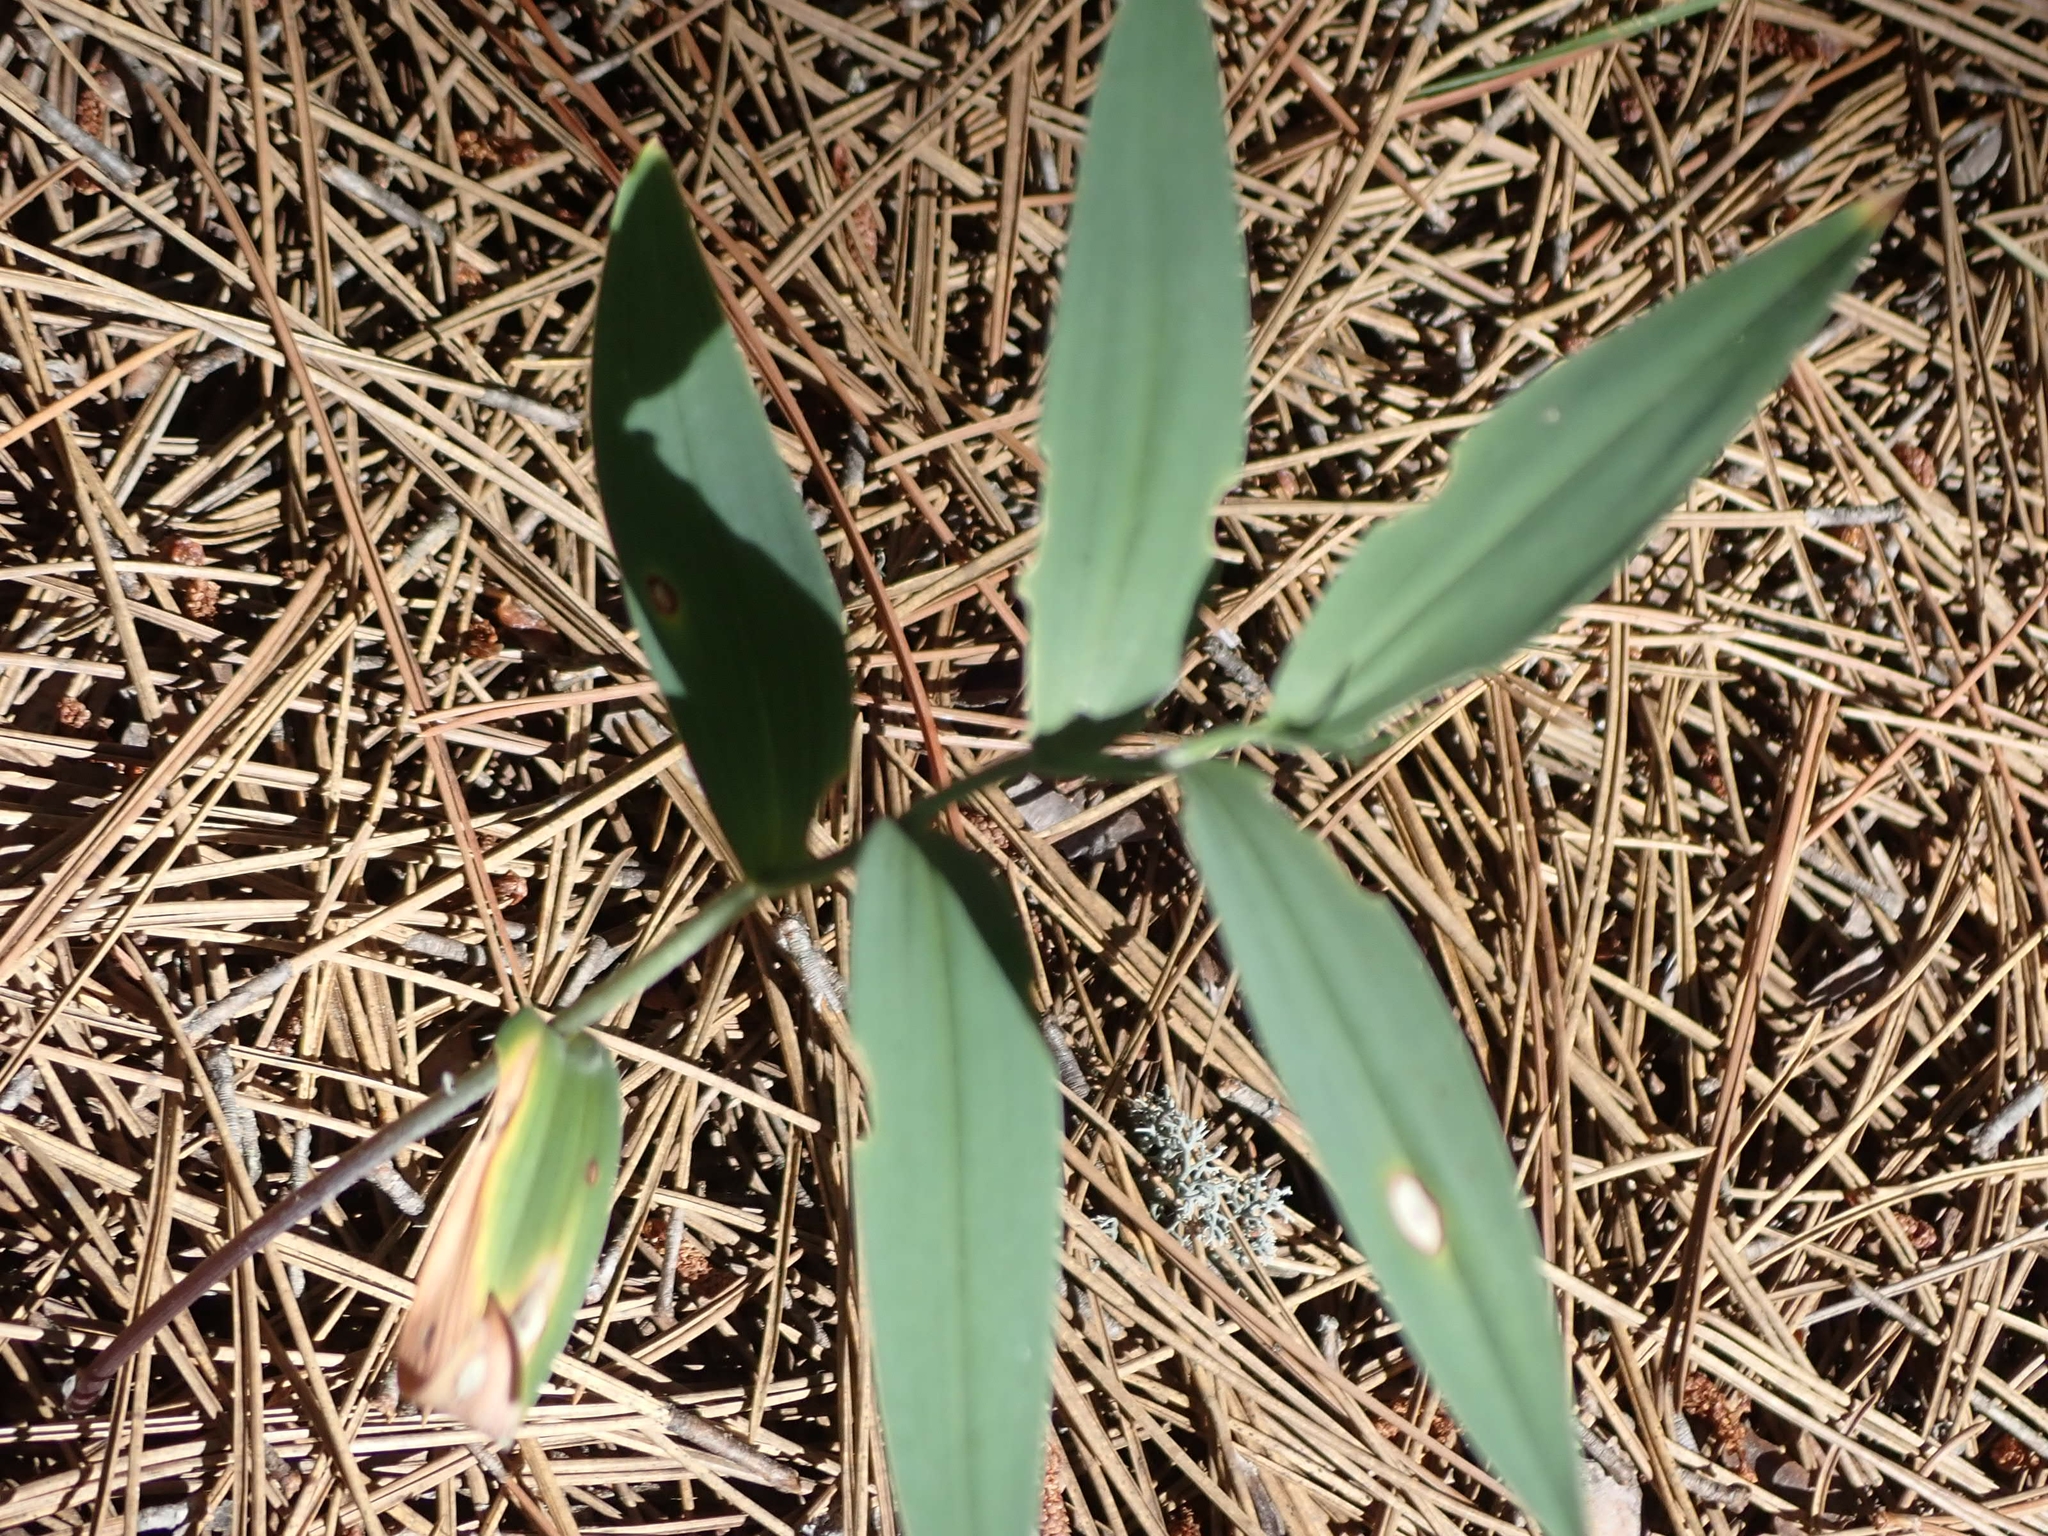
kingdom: Plantae
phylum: Tracheophyta
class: Liliopsida
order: Asparagales
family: Asparagaceae
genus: Maianthemum
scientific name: Maianthemum stellatum
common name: Little false solomon's seal
